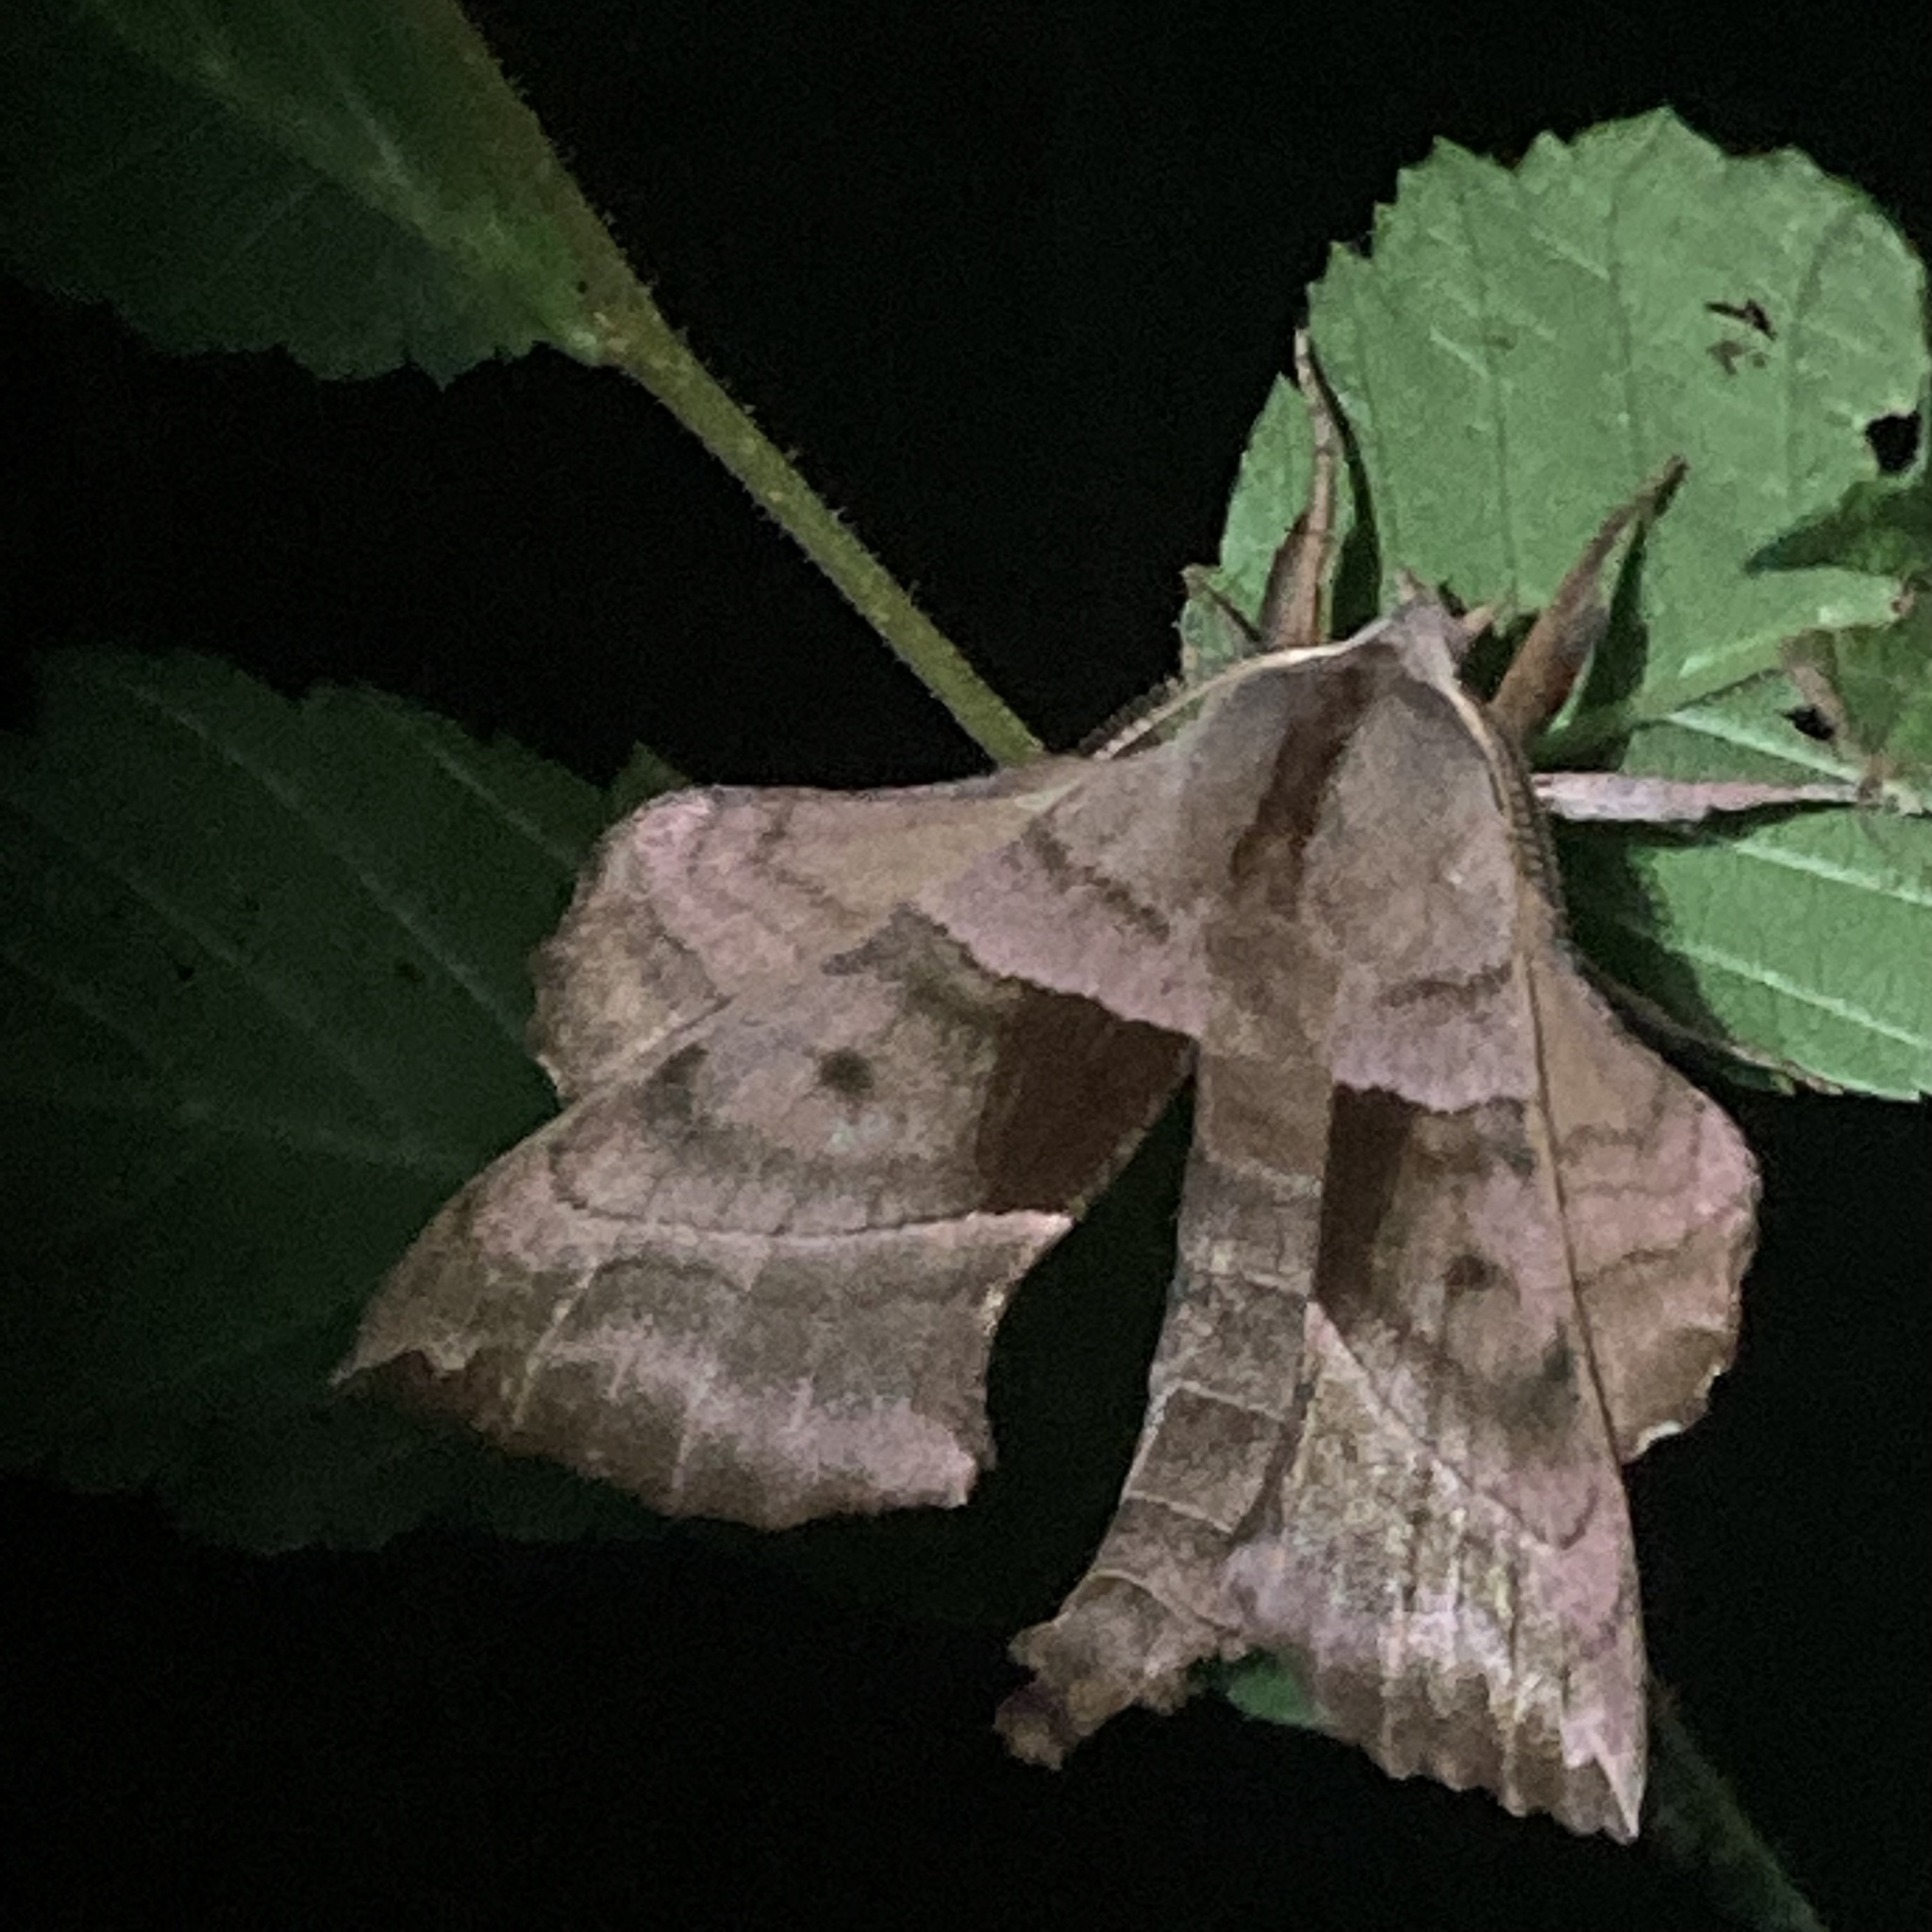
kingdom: Animalia
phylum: Arthropoda
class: Insecta
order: Lepidoptera
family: Sphingidae
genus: Amorpha
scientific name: Amorpha juglandis
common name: Walnut sphinx
